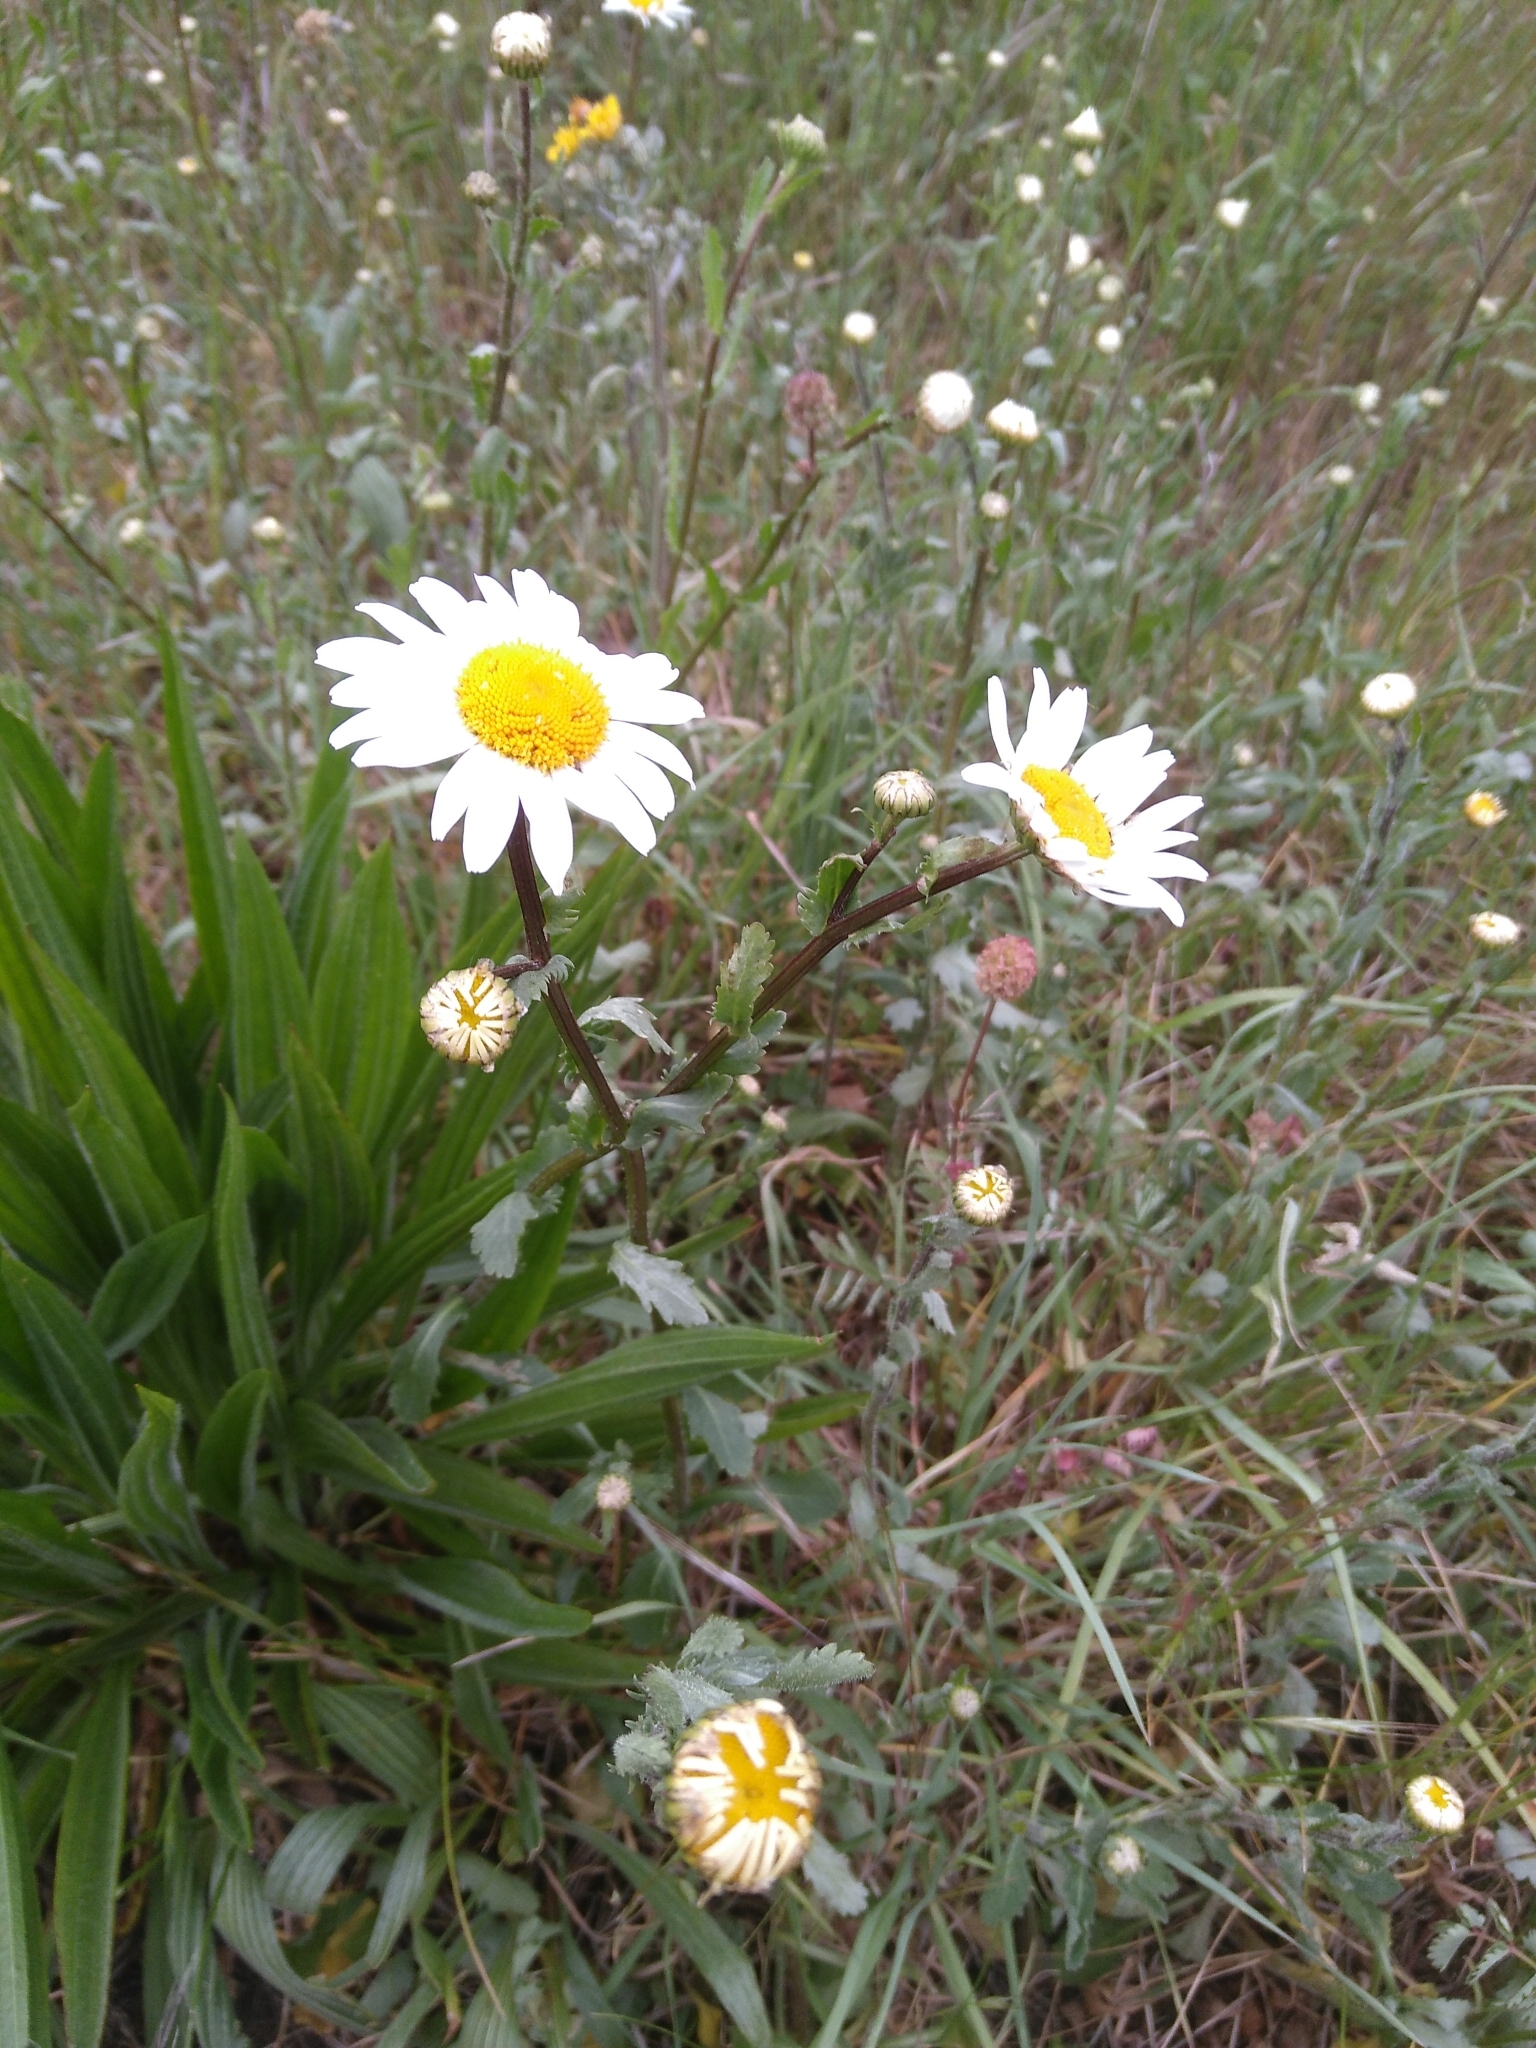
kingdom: Plantae
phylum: Tracheophyta
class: Magnoliopsida
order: Asterales
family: Asteraceae
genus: Leucanthemum
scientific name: Leucanthemum vulgare
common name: Oxeye daisy
